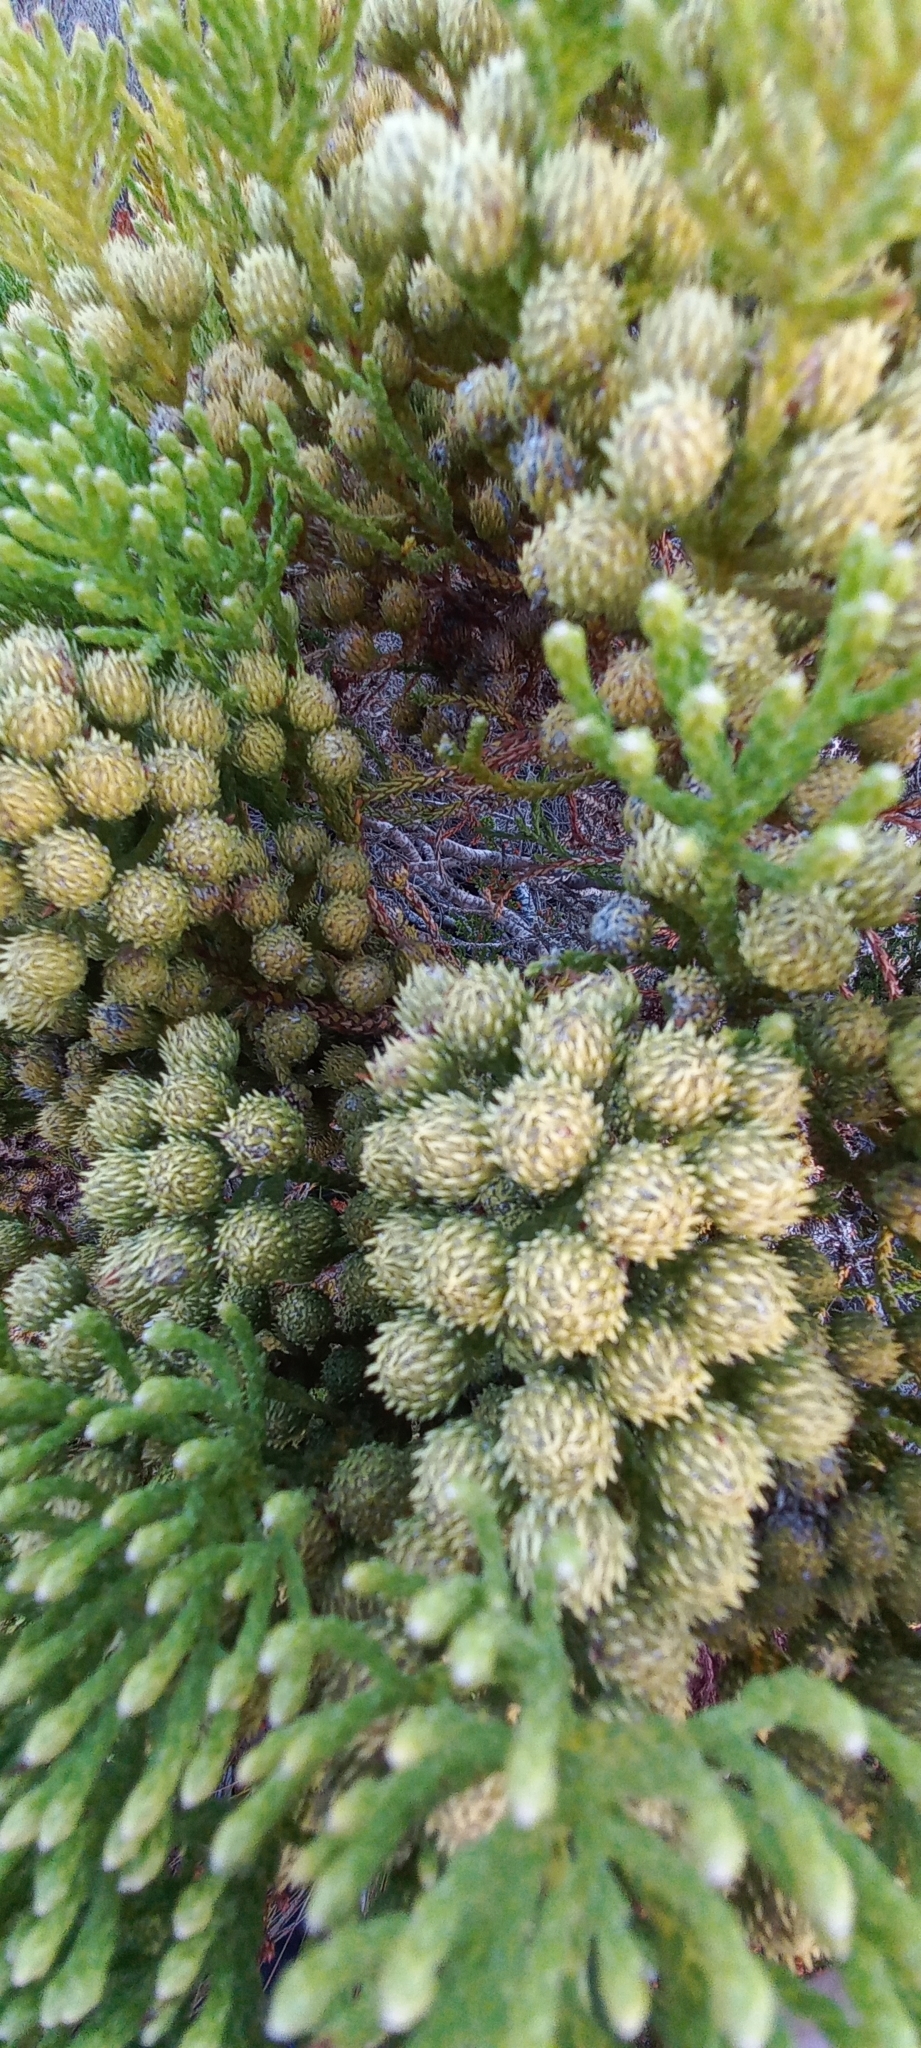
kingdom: Plantae
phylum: Tracheophyta
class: Magnoliopsida
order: Bruniales
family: Bruniaceae
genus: Brunia
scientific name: Brunia paleacea
